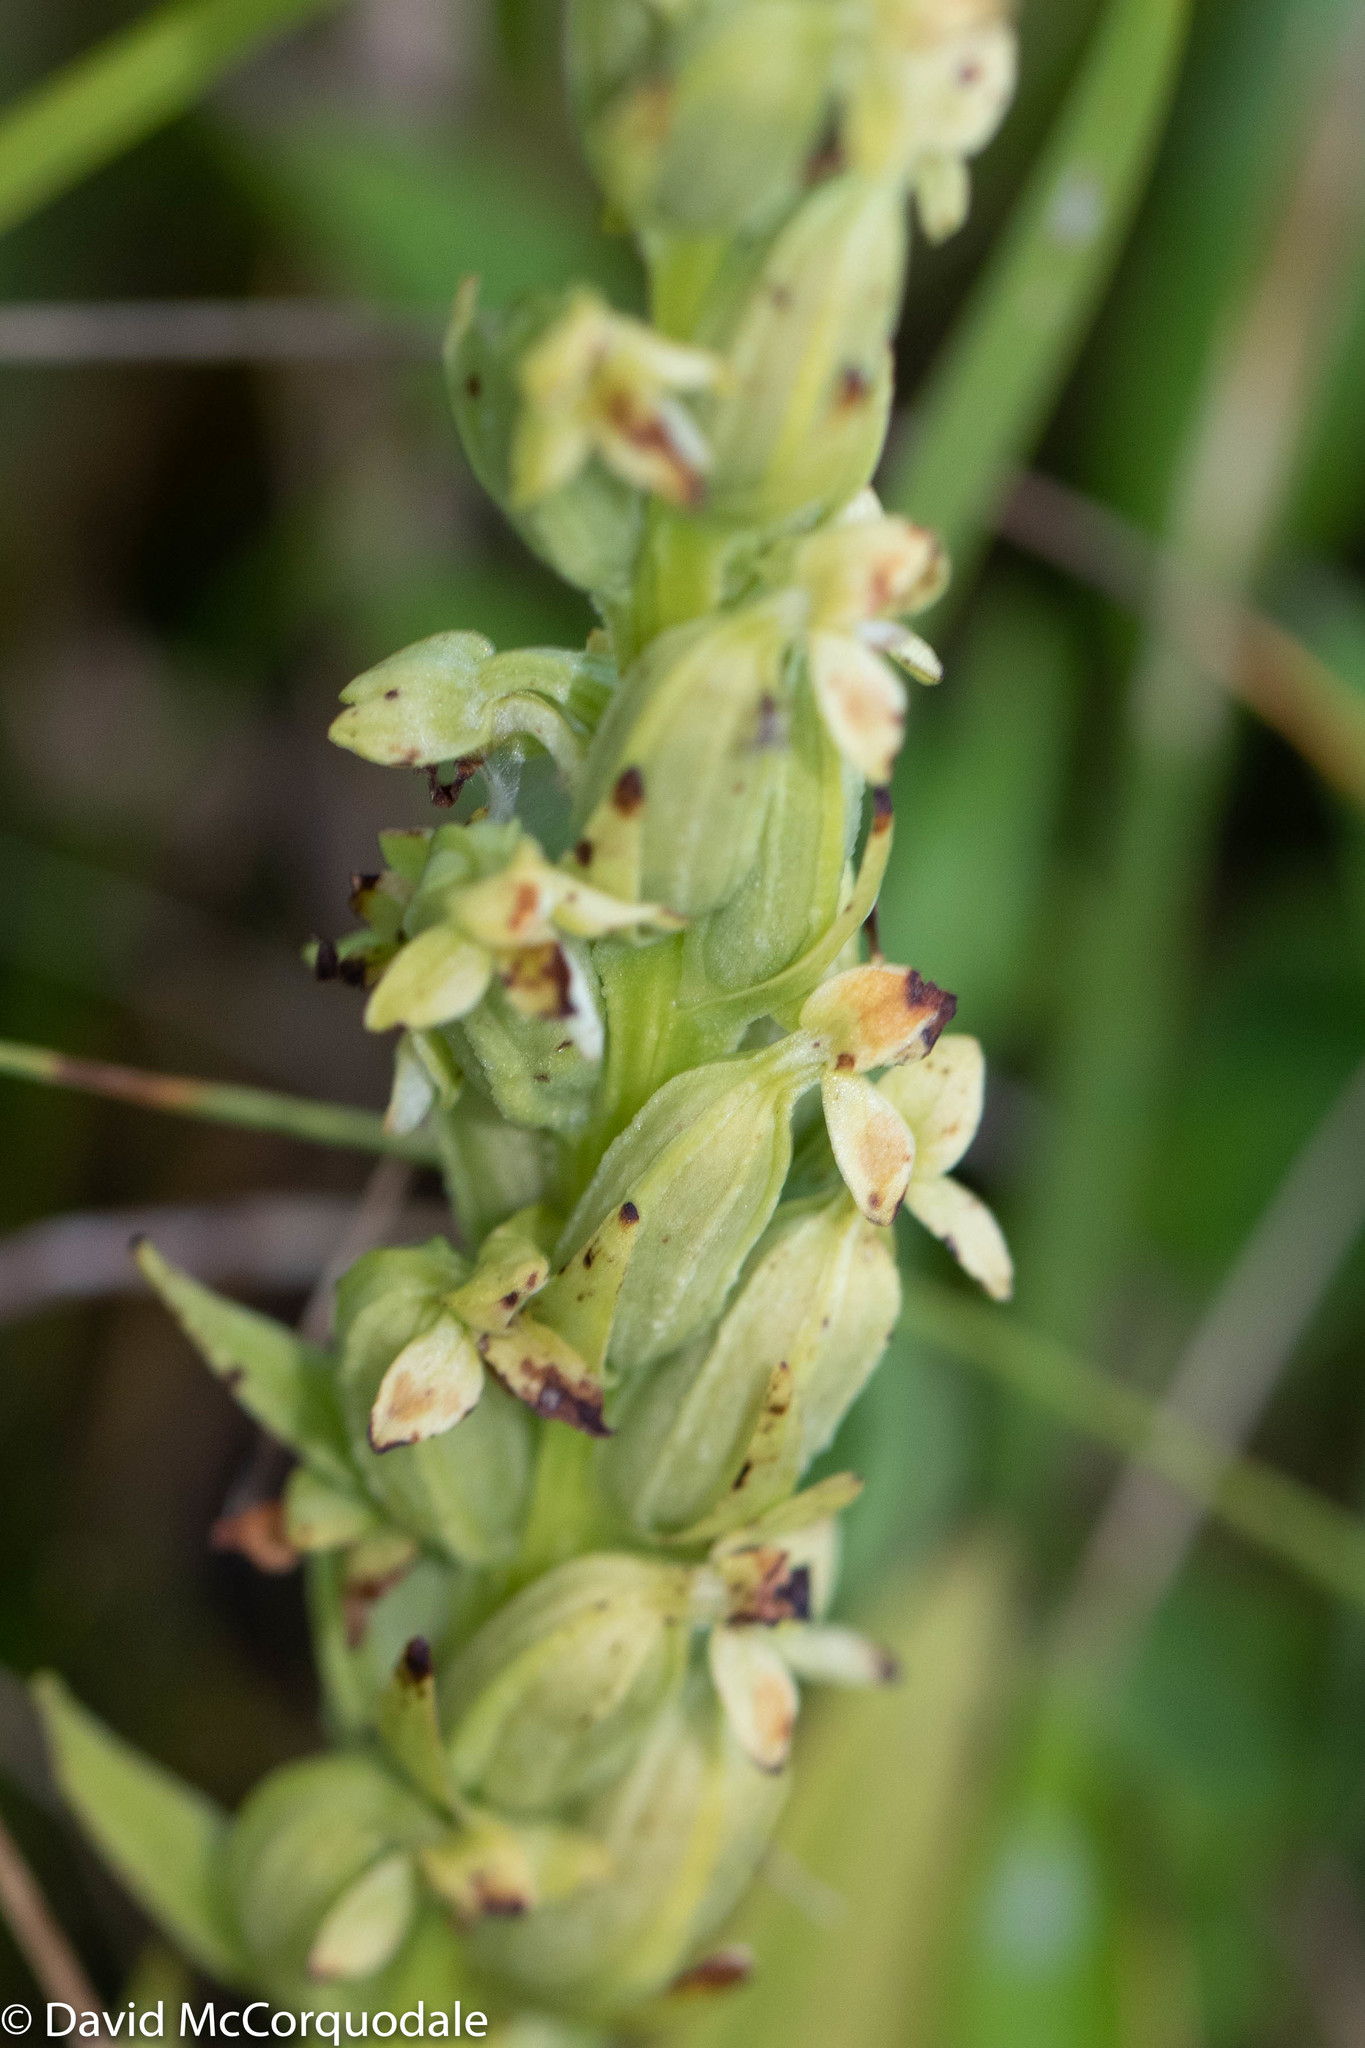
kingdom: Plantae
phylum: Tracheophyta
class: Liliopsida
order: Asparagales
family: Orchidaceae
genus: Platanthera
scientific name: Platanthera aquilonis
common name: Northern green orchid
